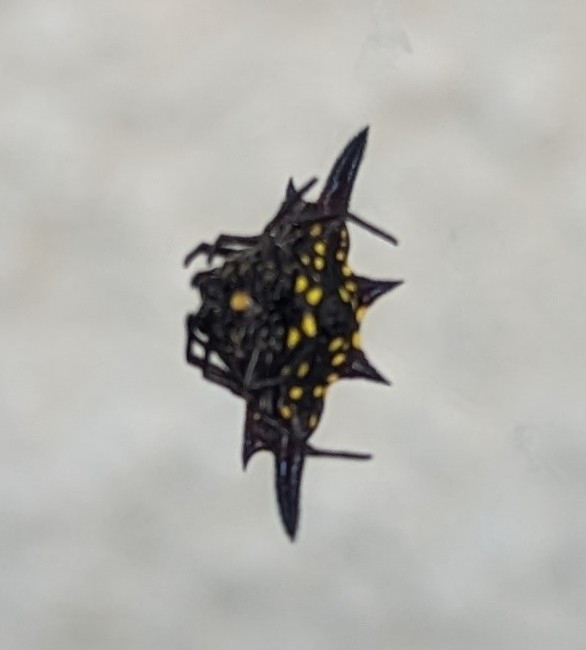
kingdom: Animalia
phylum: Arthropoda
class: Arachnida
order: Araneae
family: Araneidae
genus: Gasteracantha
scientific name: Gasteracantha fornicata
